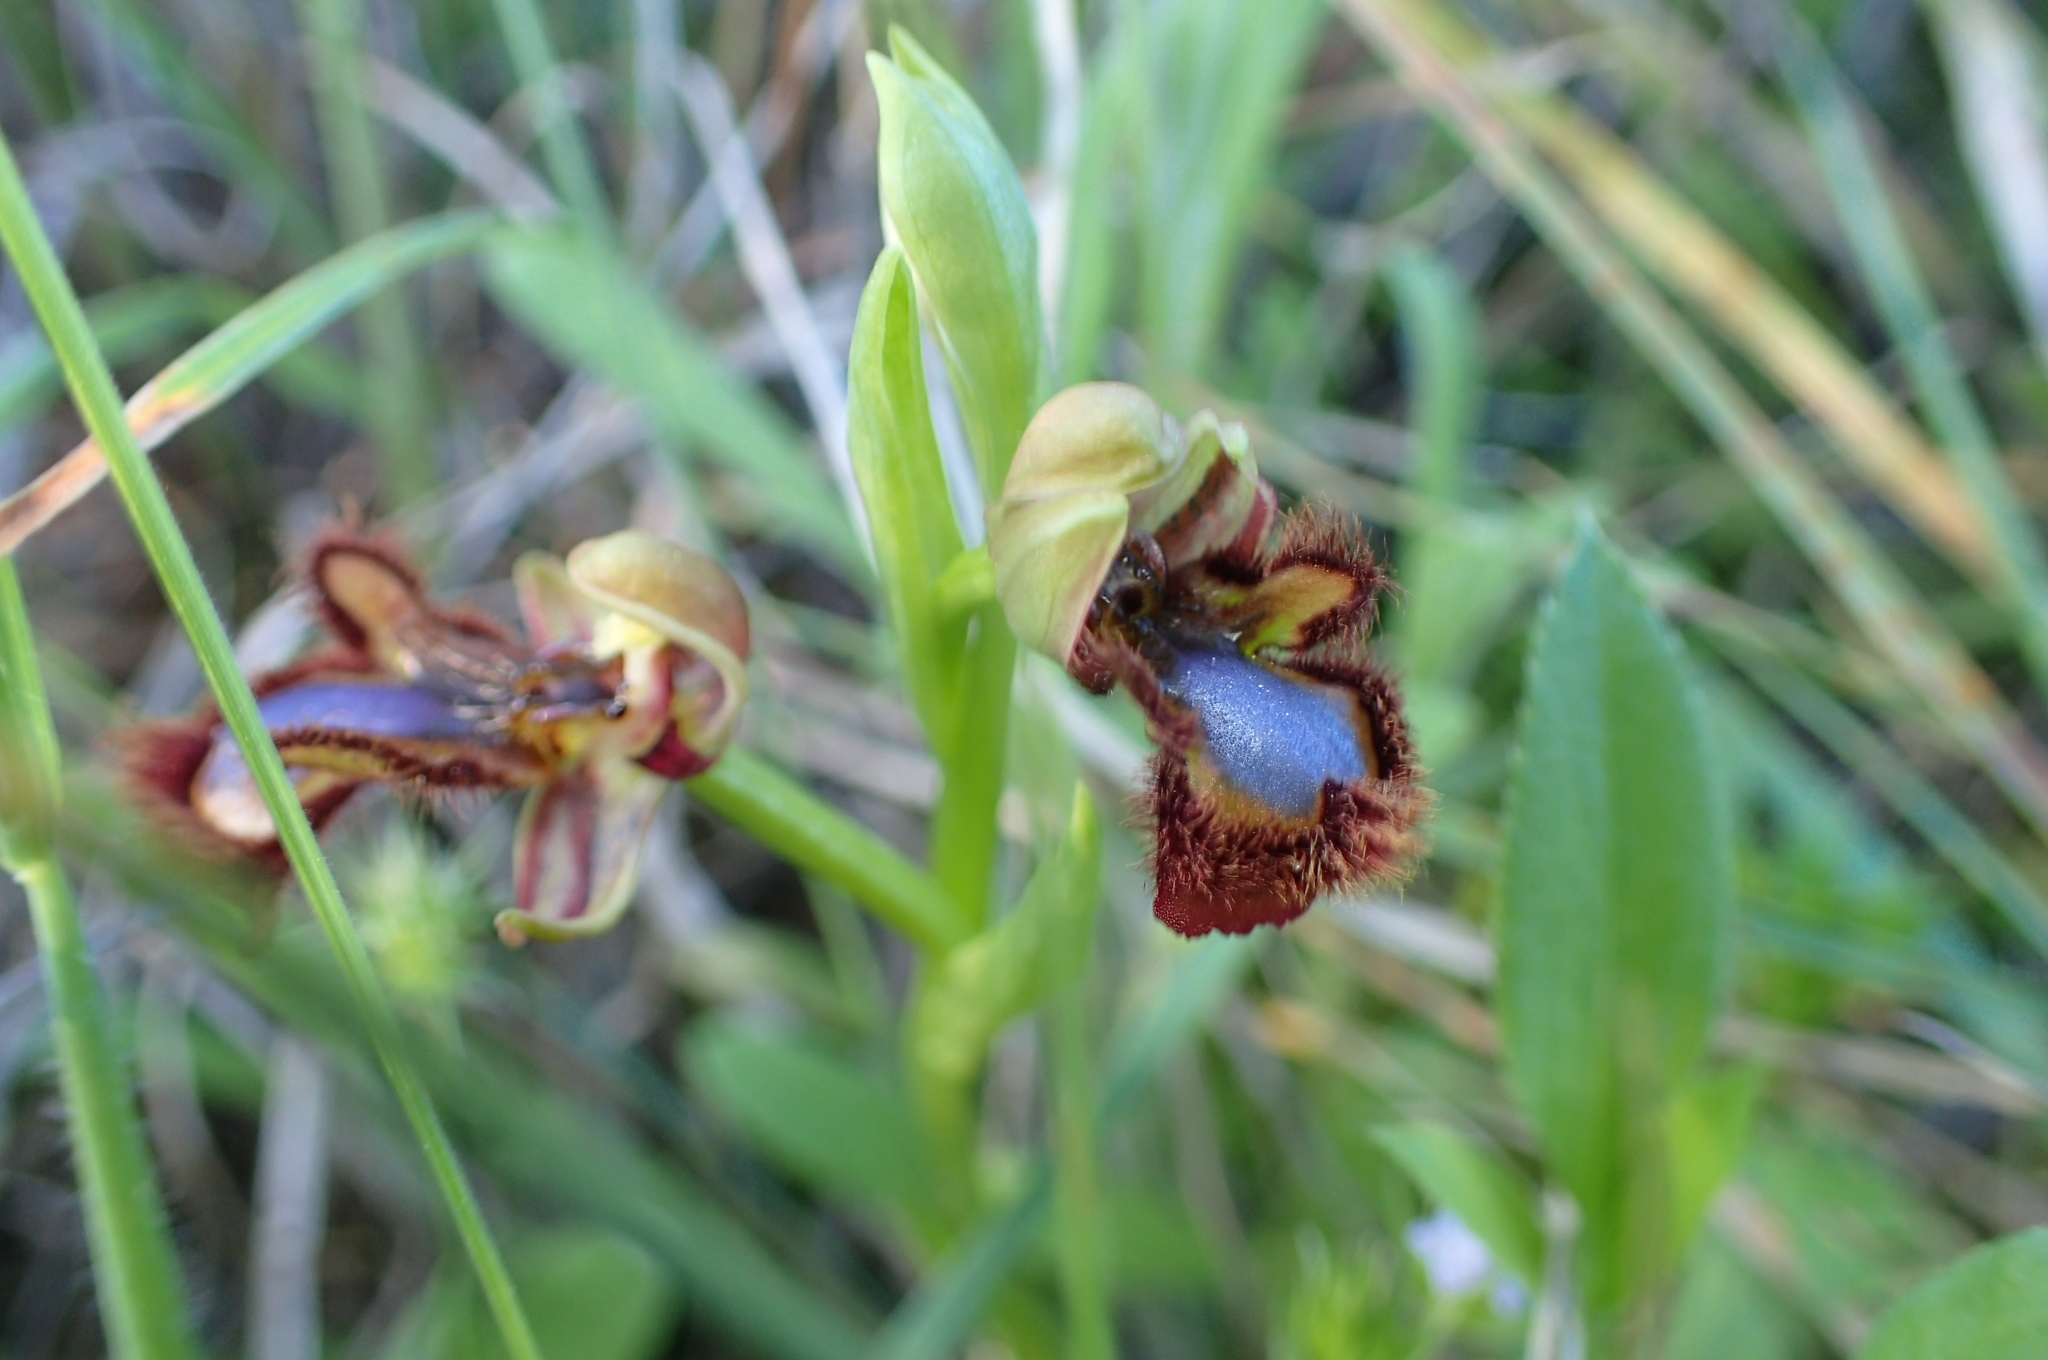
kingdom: Plantae
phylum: Tracheophyta
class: Liliopsida
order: Asparagales
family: Orchidaceae
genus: Ophrys
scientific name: Ophrys speculum
